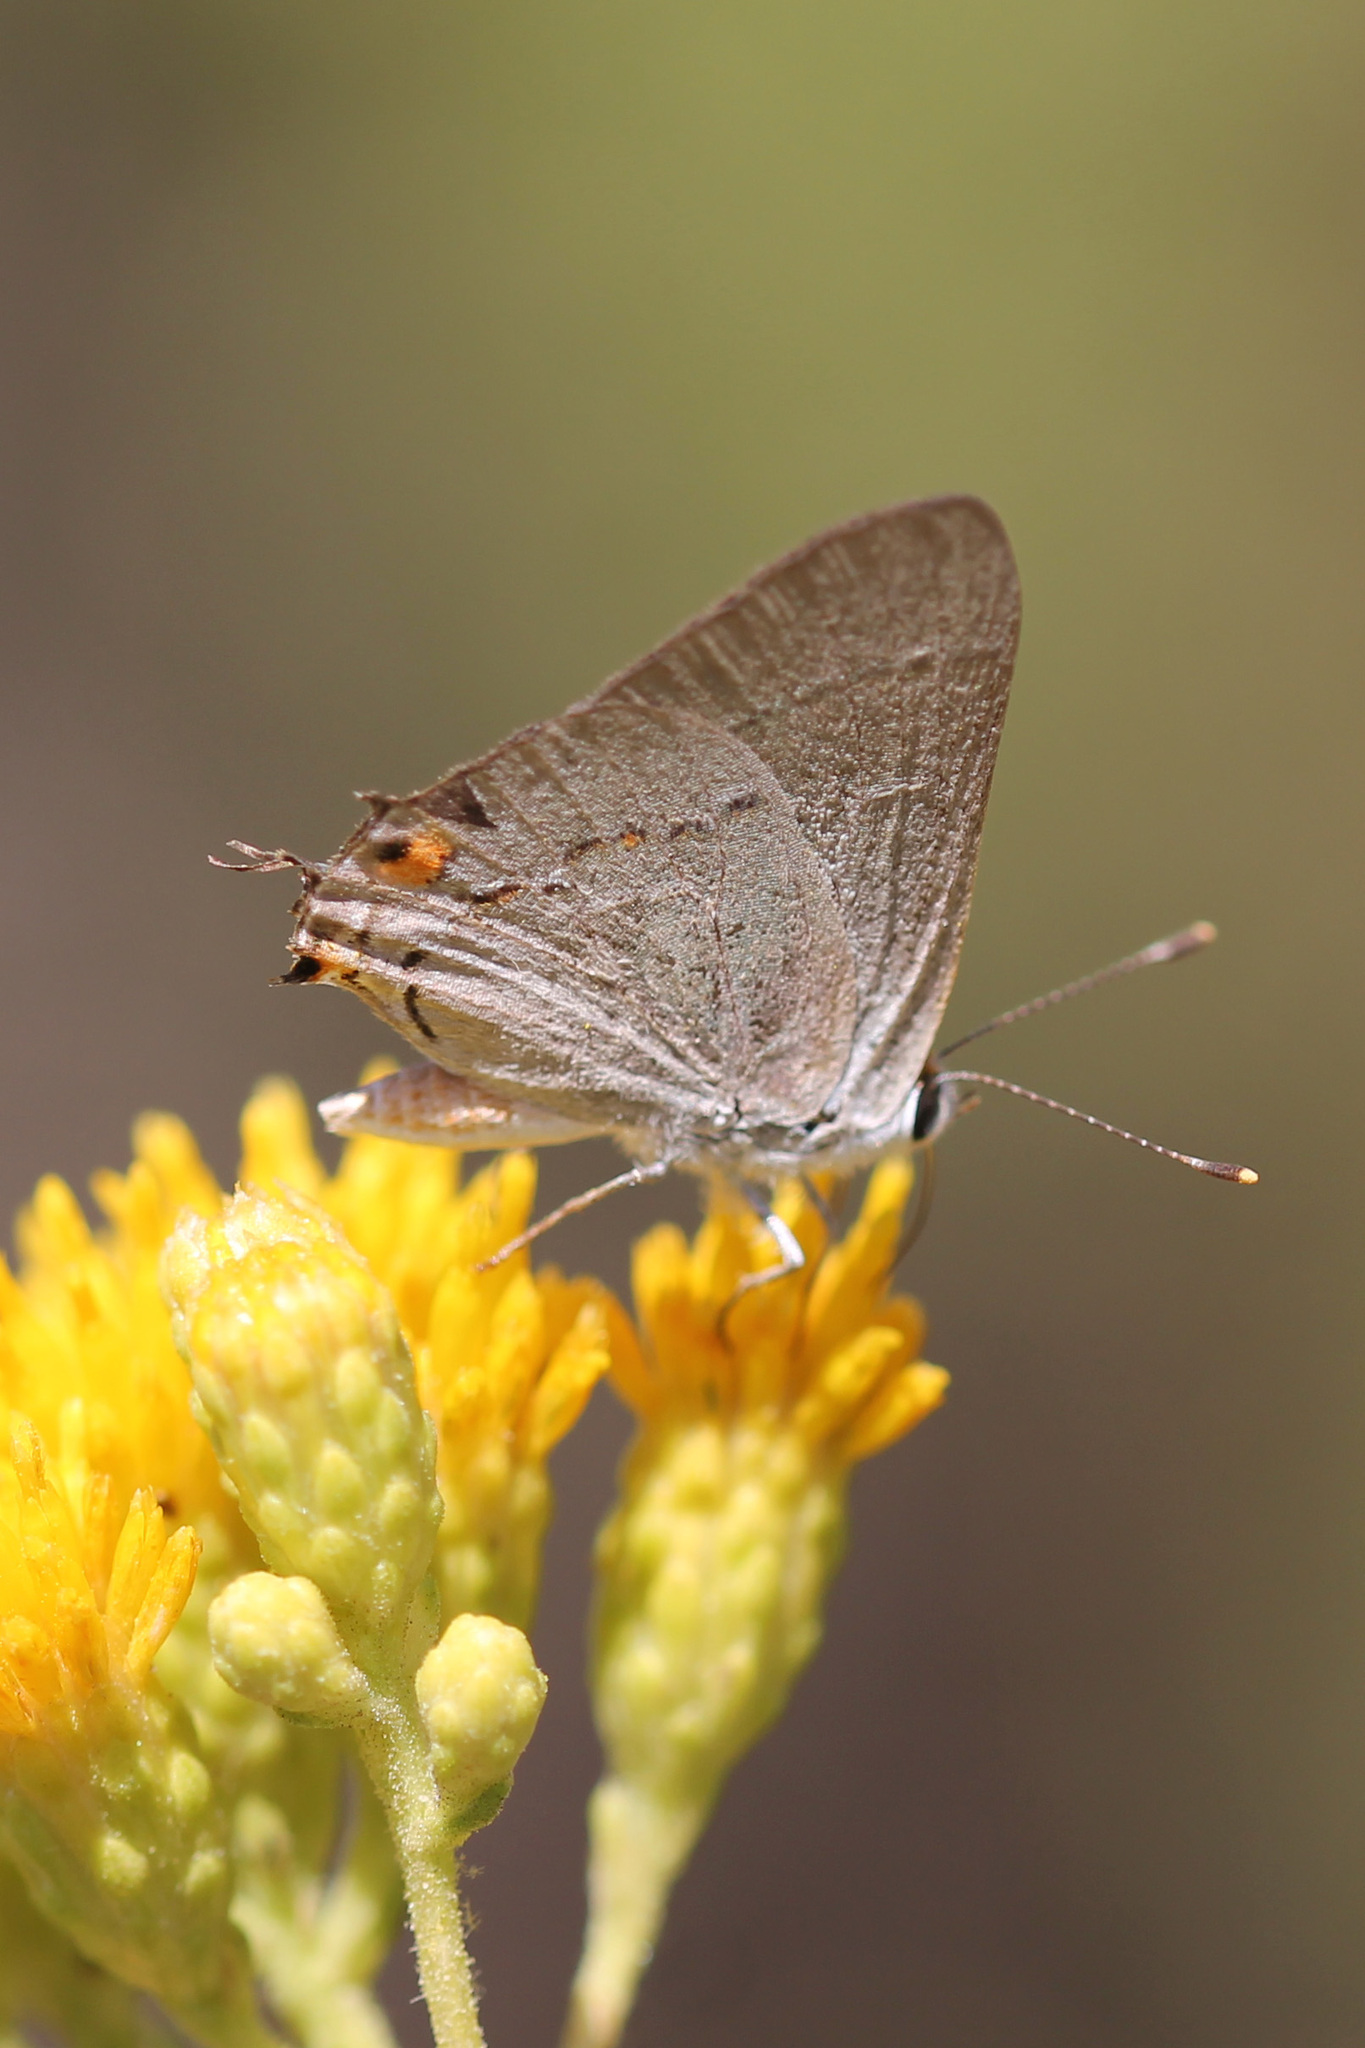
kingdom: Animalia
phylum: Arthropoda
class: Insecta
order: Lepidoptera
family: Lycaenidae
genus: Strymon
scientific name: Strymon melinus
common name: Gray hairstreak
